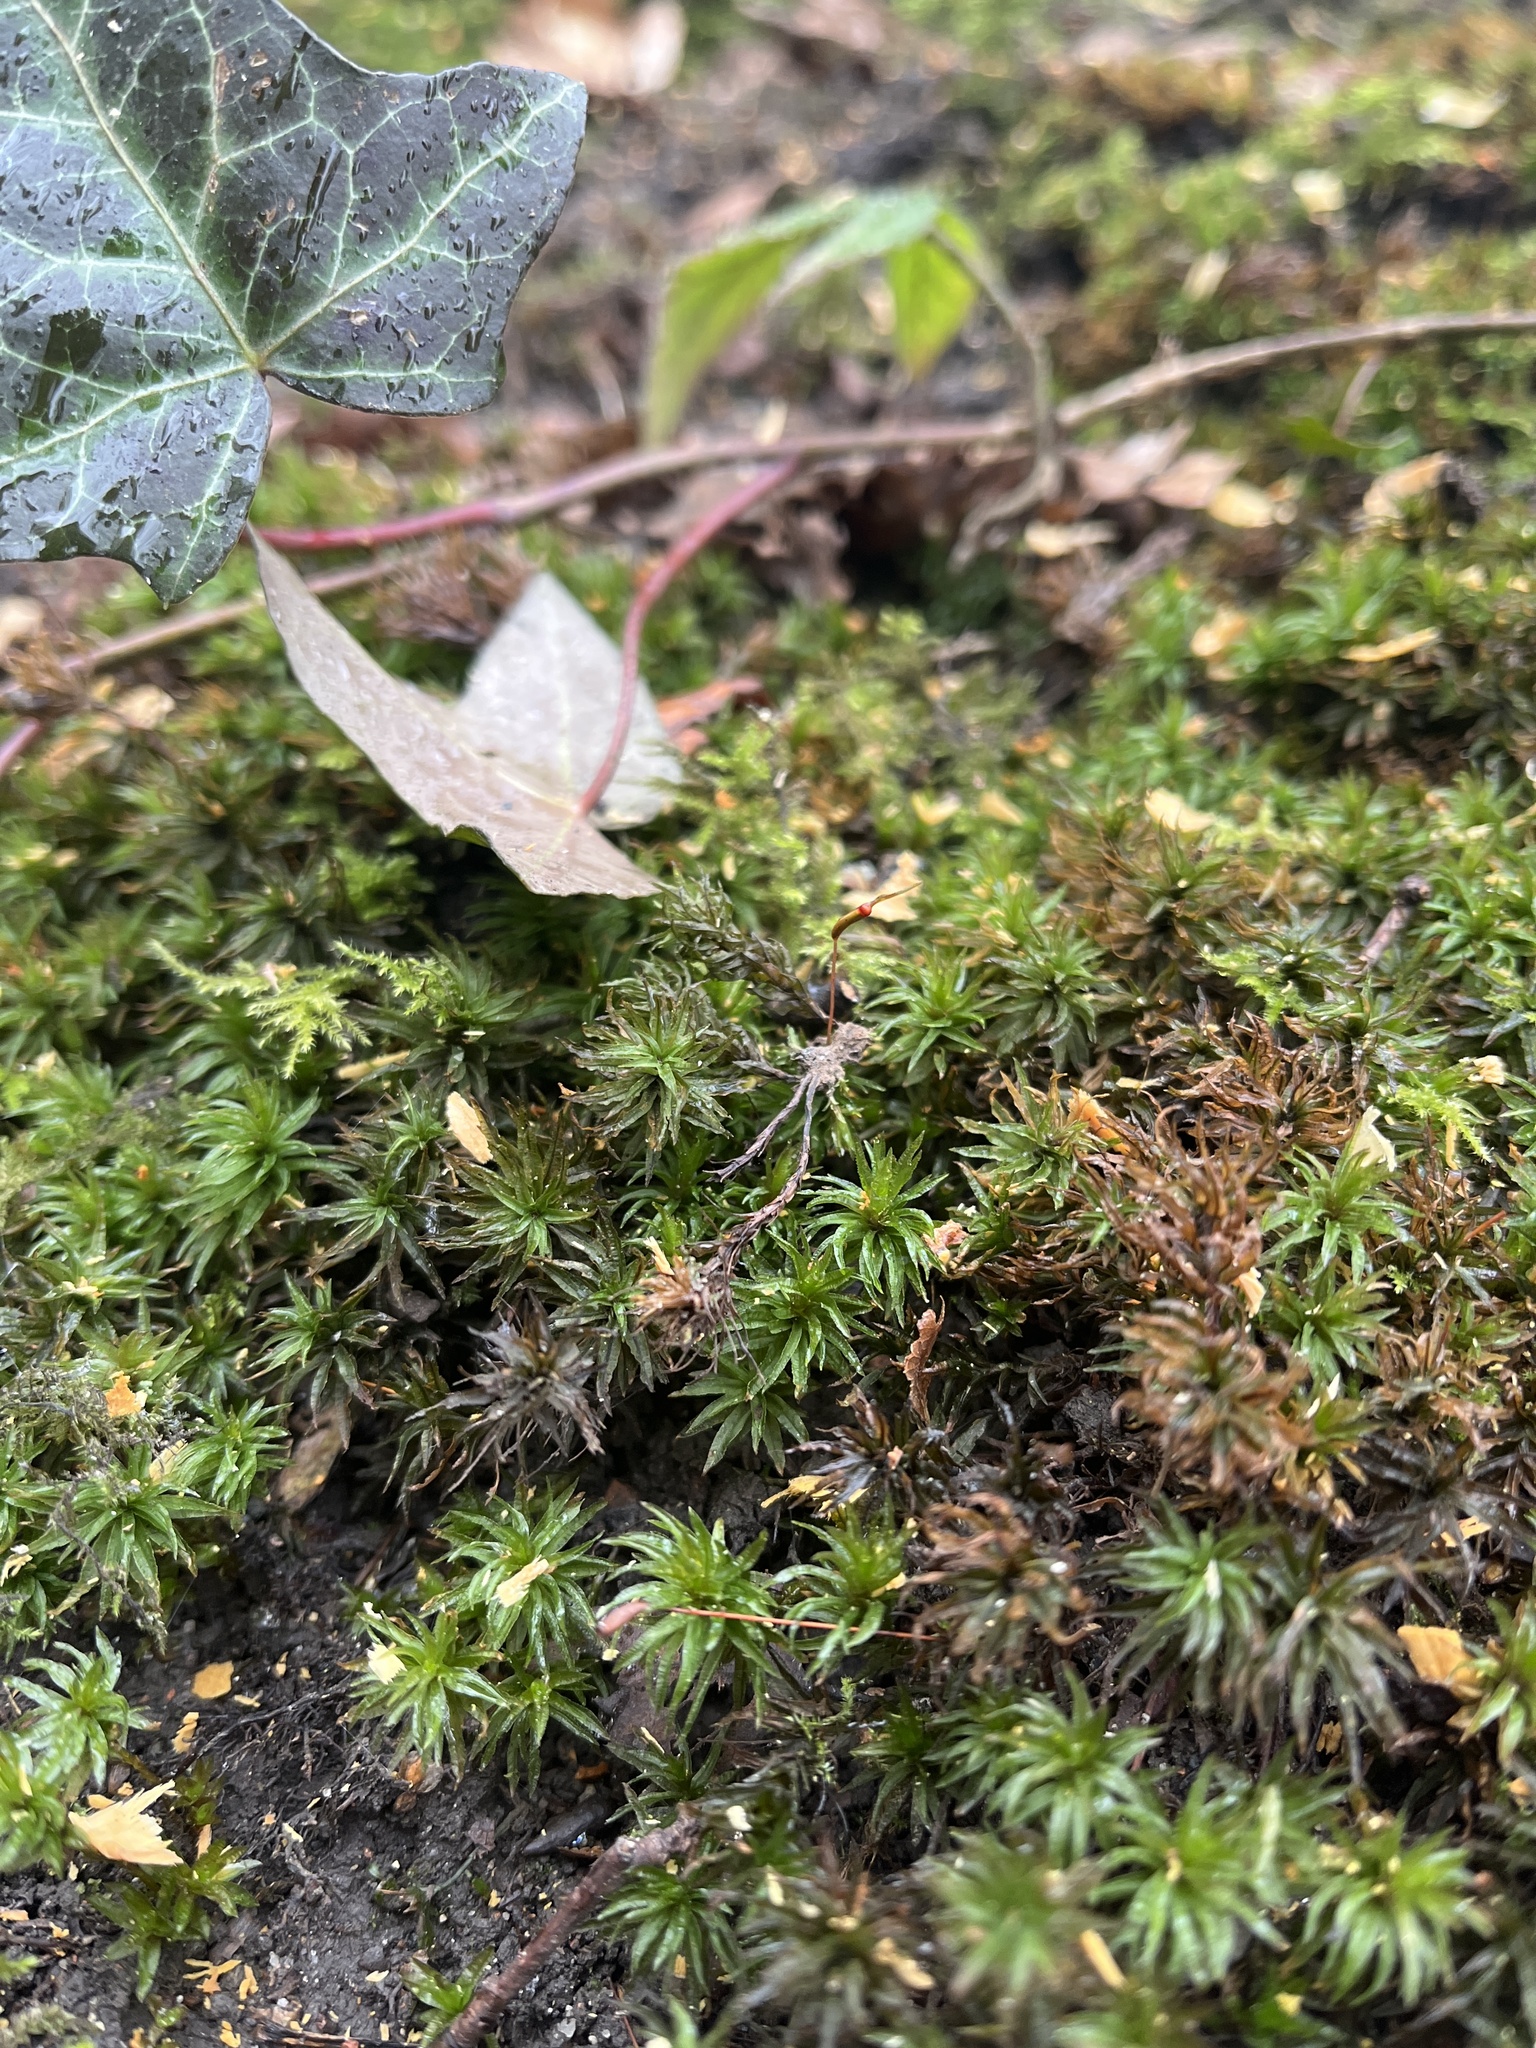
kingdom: Plantae
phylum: Bryophyta
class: Polytrichopsida
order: Polytrichales
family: Polytrichaceae
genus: Atrichum
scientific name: Atrichum undulatum
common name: Common smoothcap
